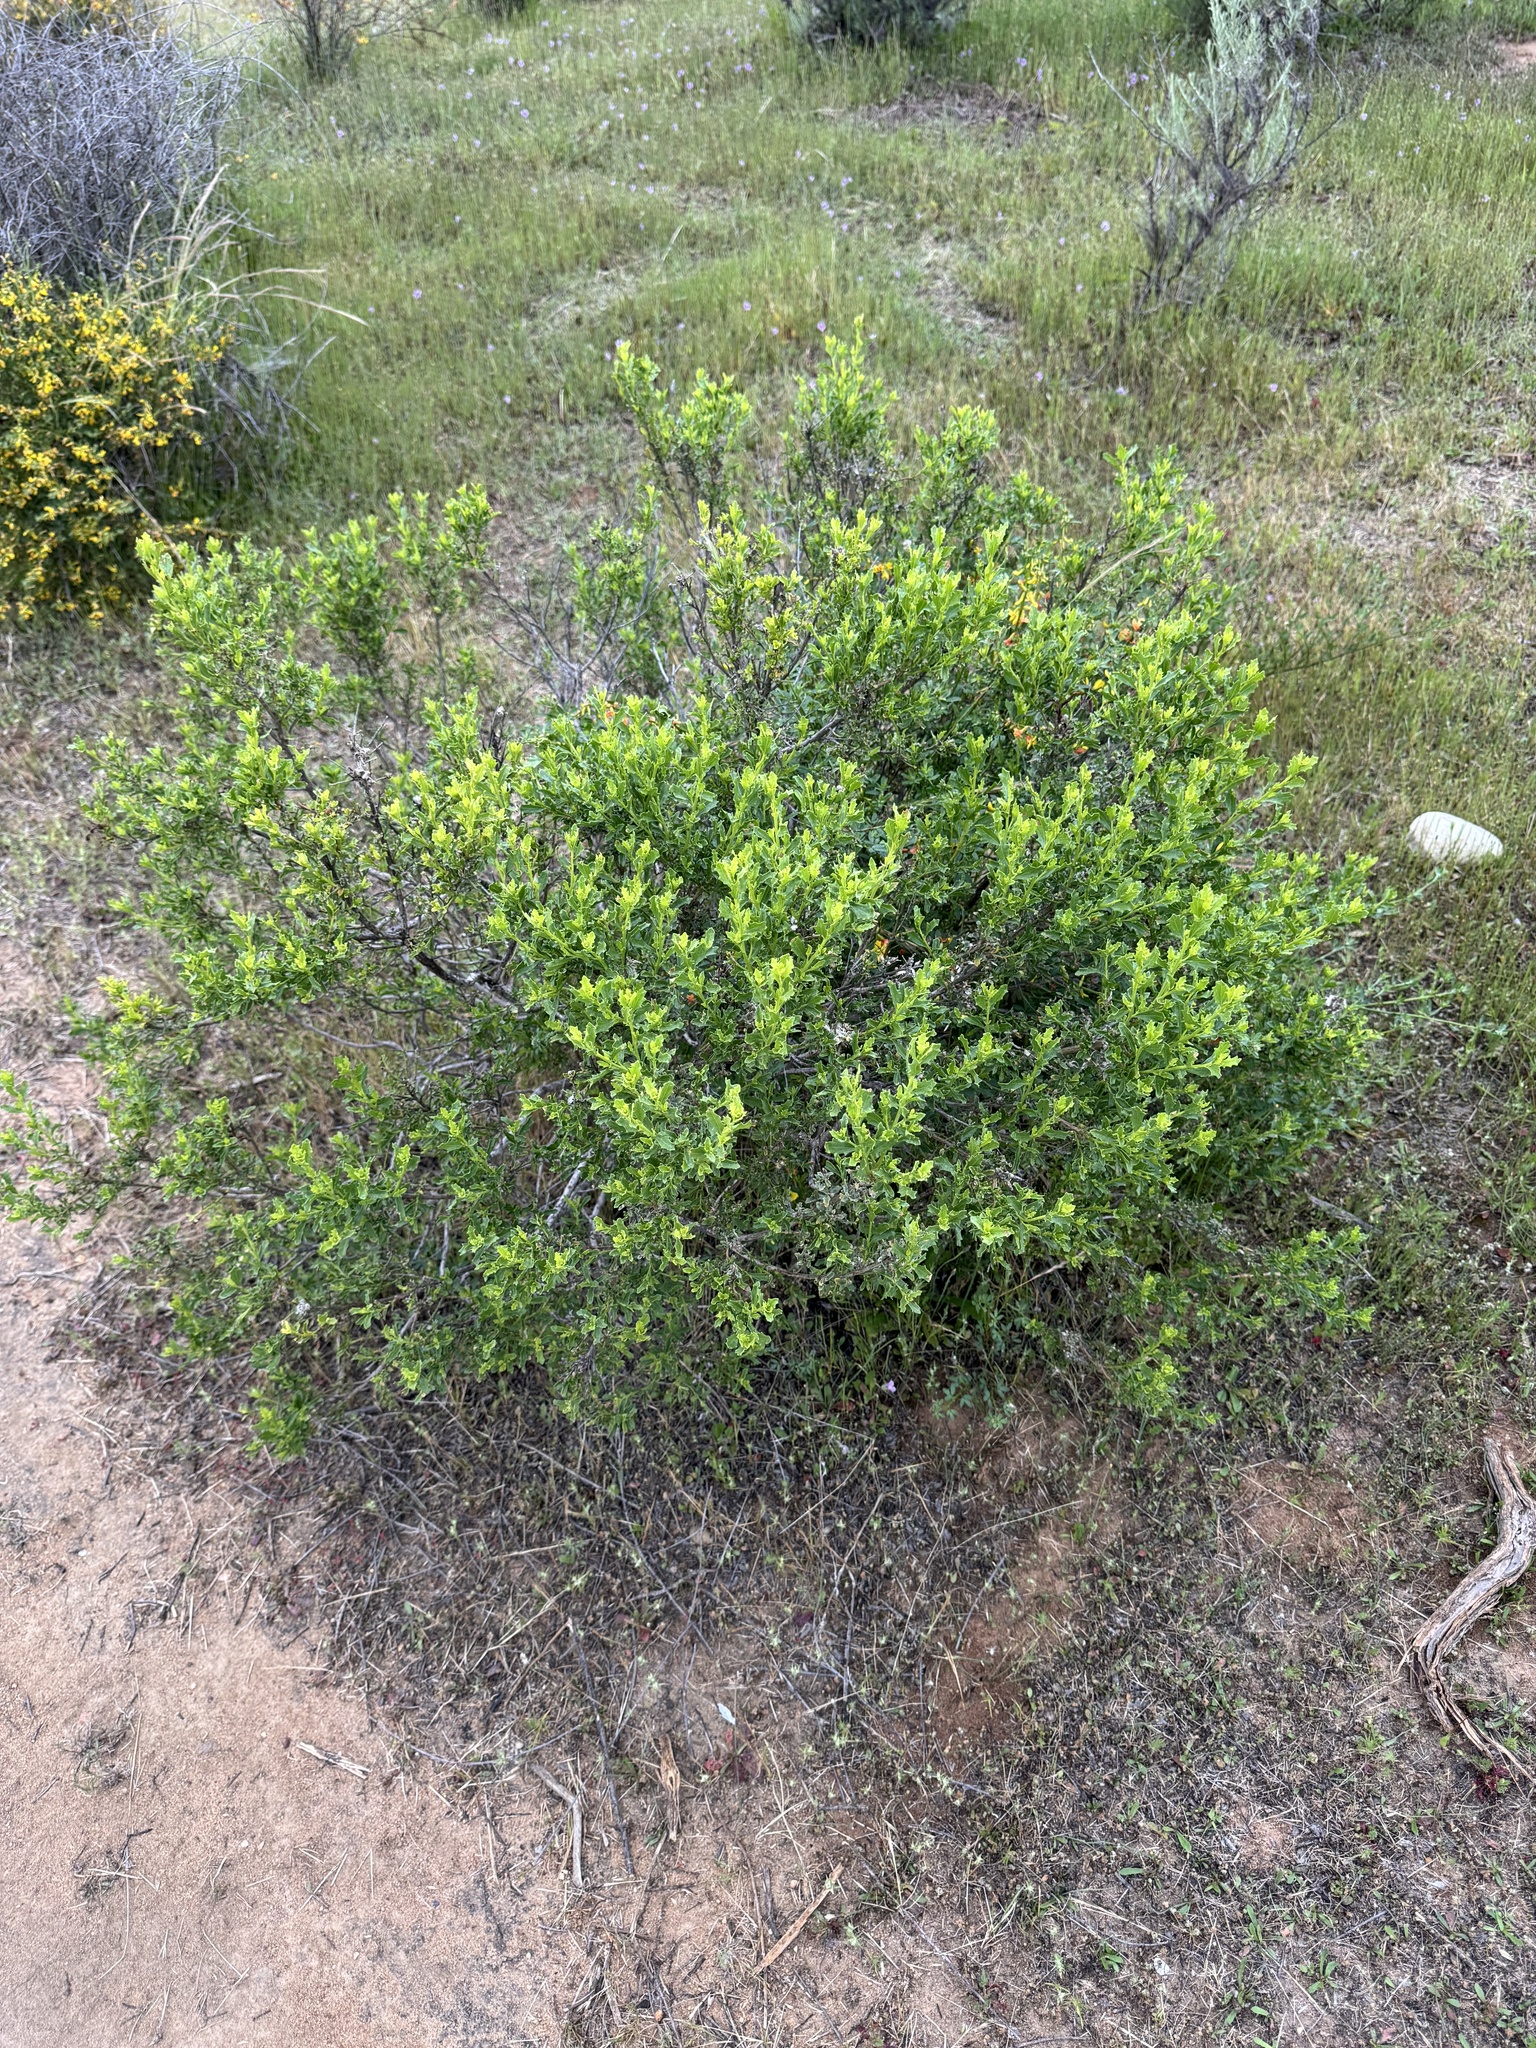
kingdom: Plantae
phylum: Tracheophyta
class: Magnoliopsida
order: Asterales
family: Asteraceae
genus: Baccharis
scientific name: Baccharis pilularis
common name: Coyotebrush
